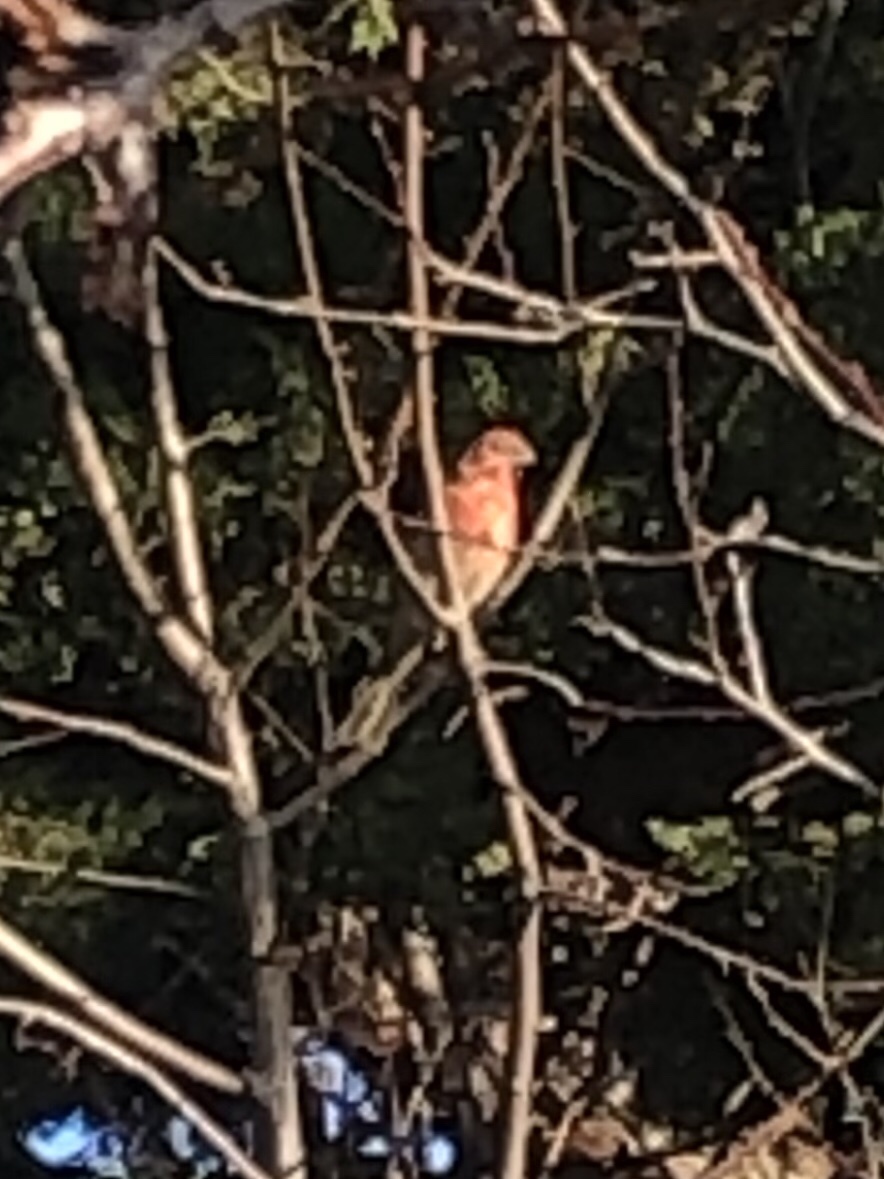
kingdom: Animalia
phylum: Chordata
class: Aves
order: Passeriformes
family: Fringillidae
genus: Haemorhous
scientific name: Haemorhous
